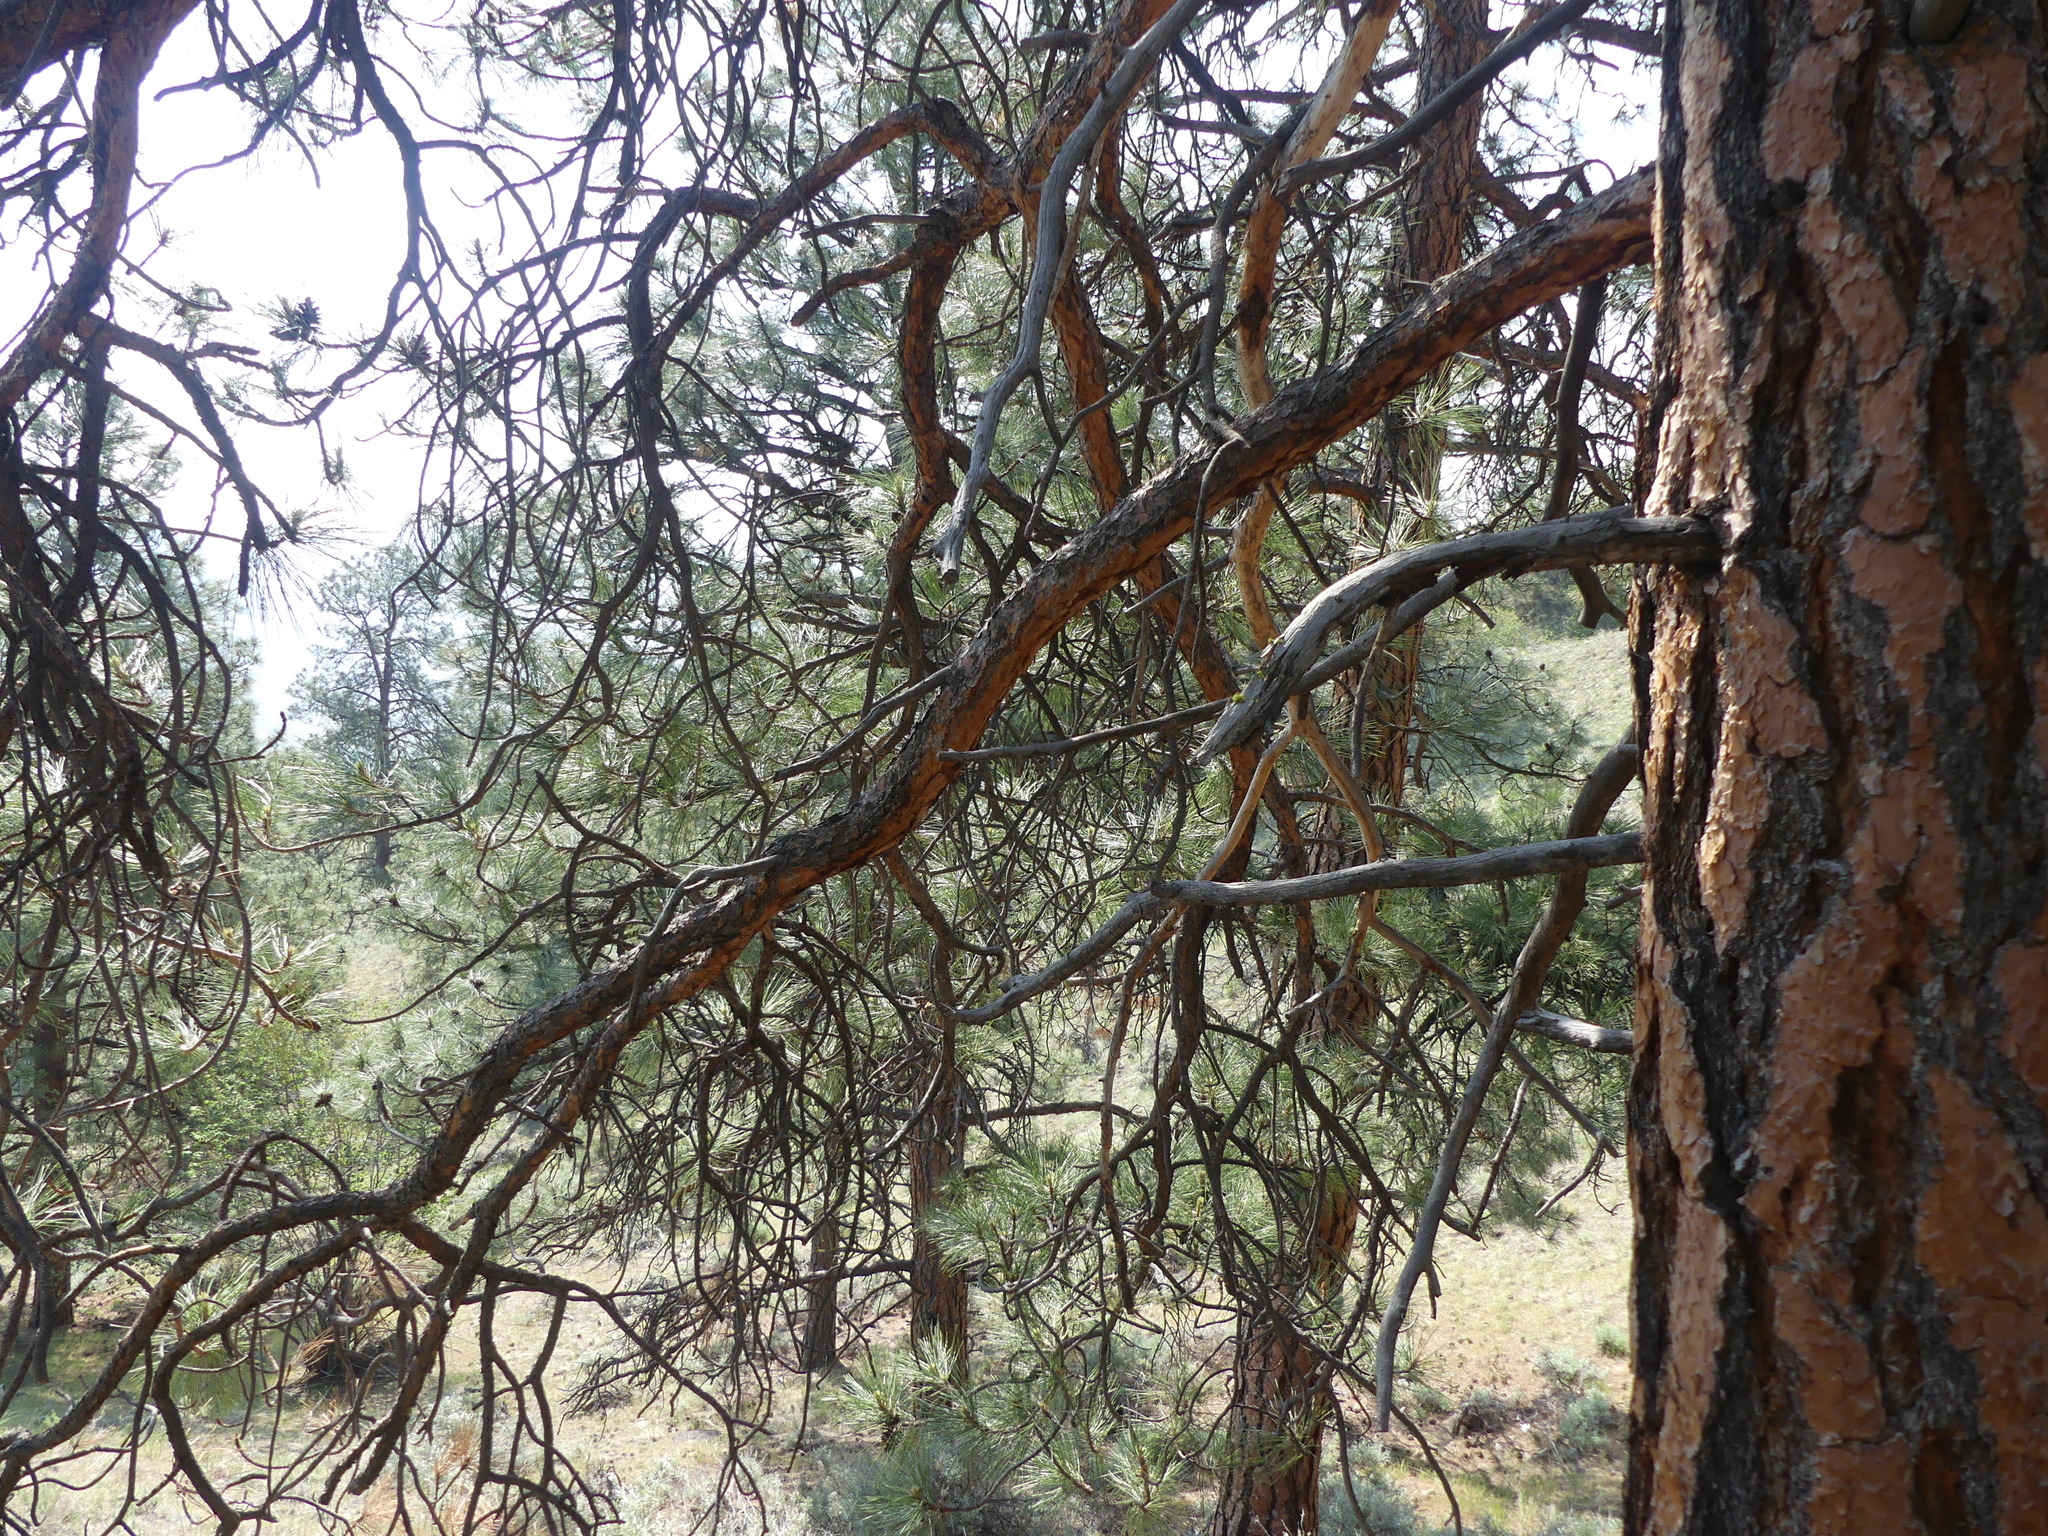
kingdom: Plantae
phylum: Tracheophyta
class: Pinopsida
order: Pinales
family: Pinaceae
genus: Pinus
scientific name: Pinus ponderosa
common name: Western yellow-pine
